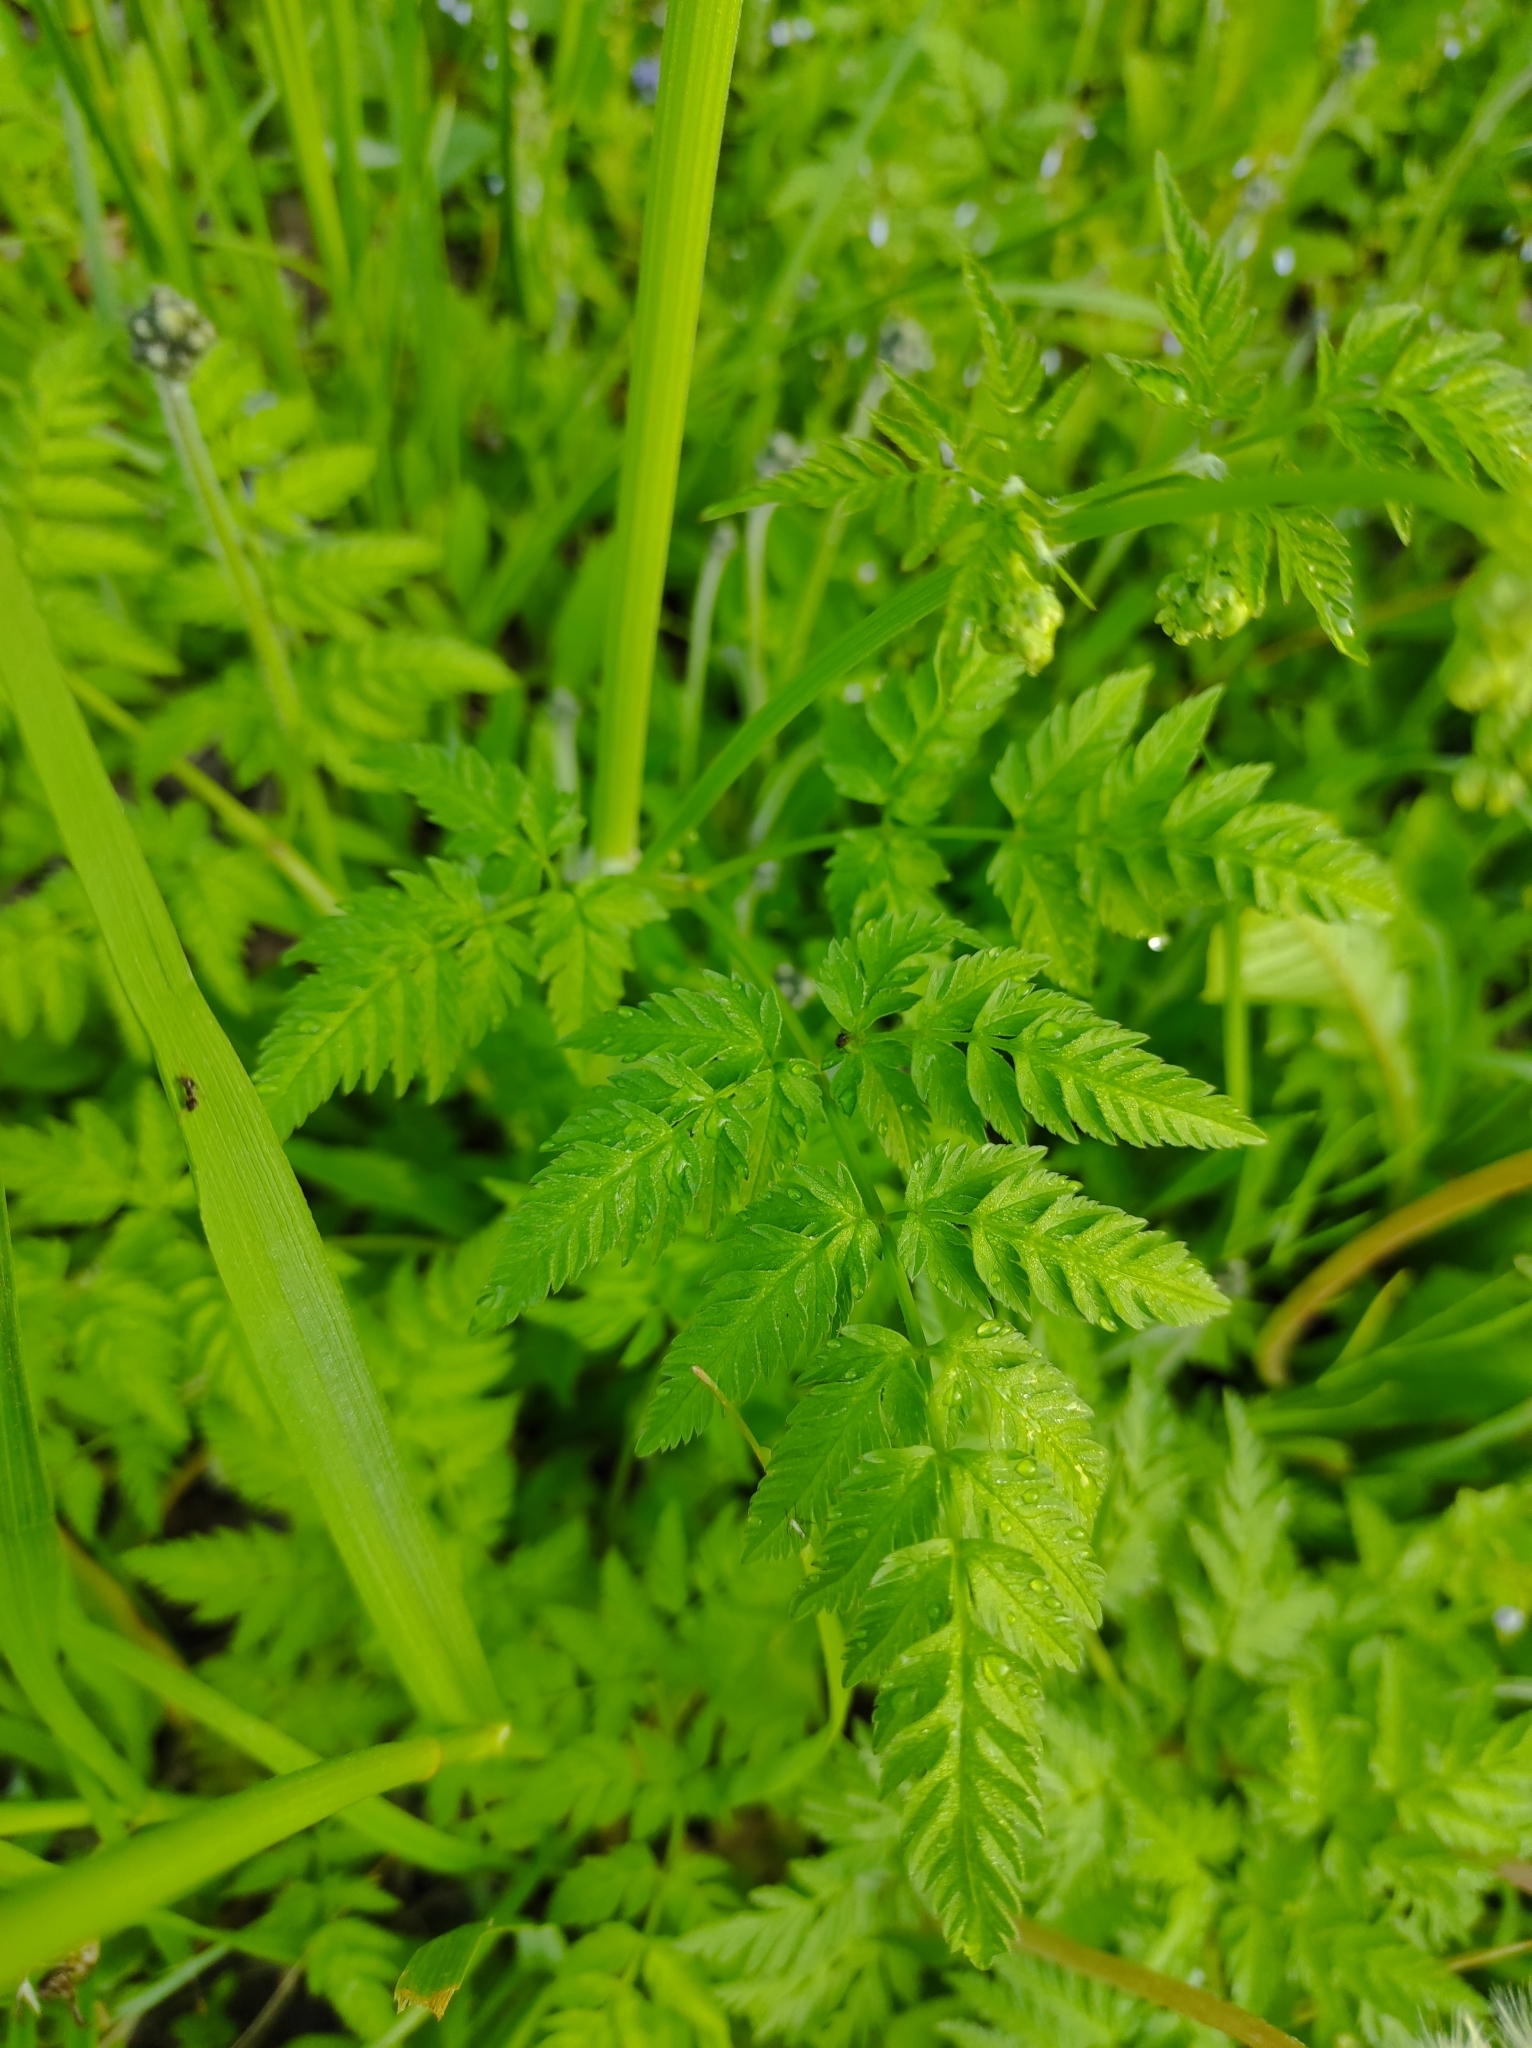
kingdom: Plantae
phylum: Tracheophyta
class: Magnoliopsida
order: Apiales
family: Apiaceae
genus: Anthriscus
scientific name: Anthriscus sylvestris
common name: Cow parsley
